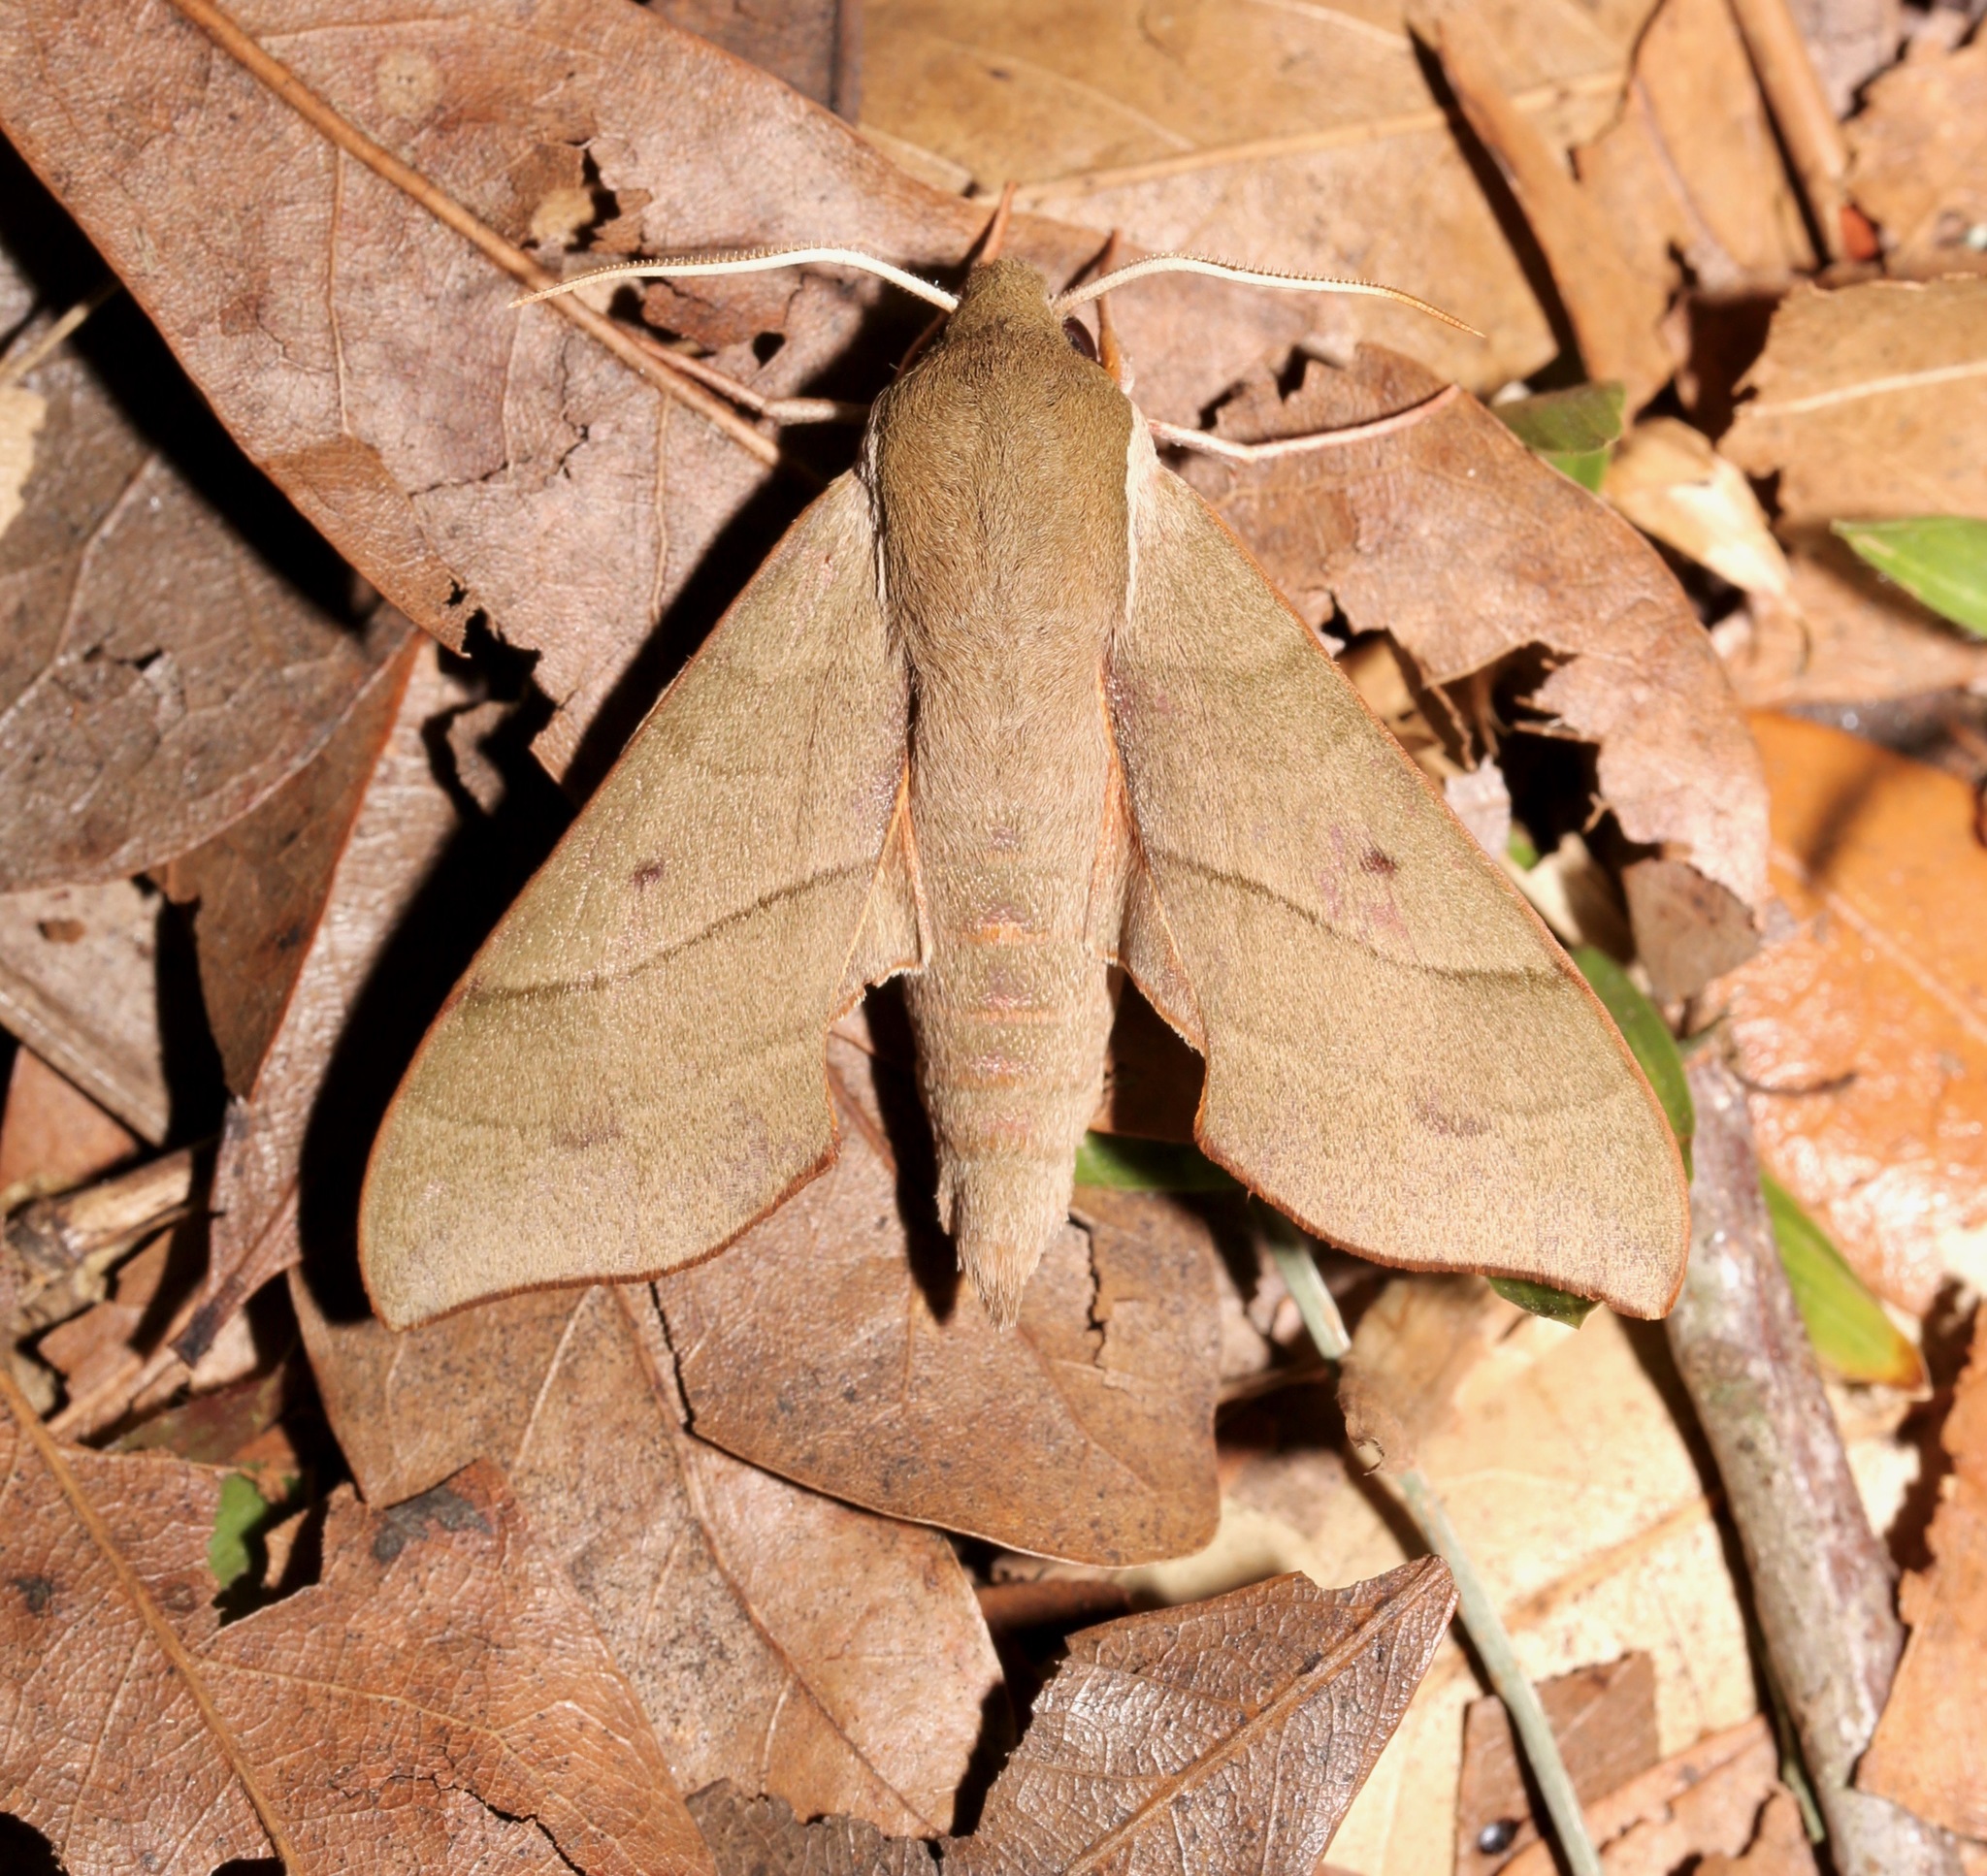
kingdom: Animalia
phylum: Arthropoda
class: Insecta
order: Lepidoptera
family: Sphingidae
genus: Darapsa
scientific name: Darapsa myron
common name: Hog sphinx
